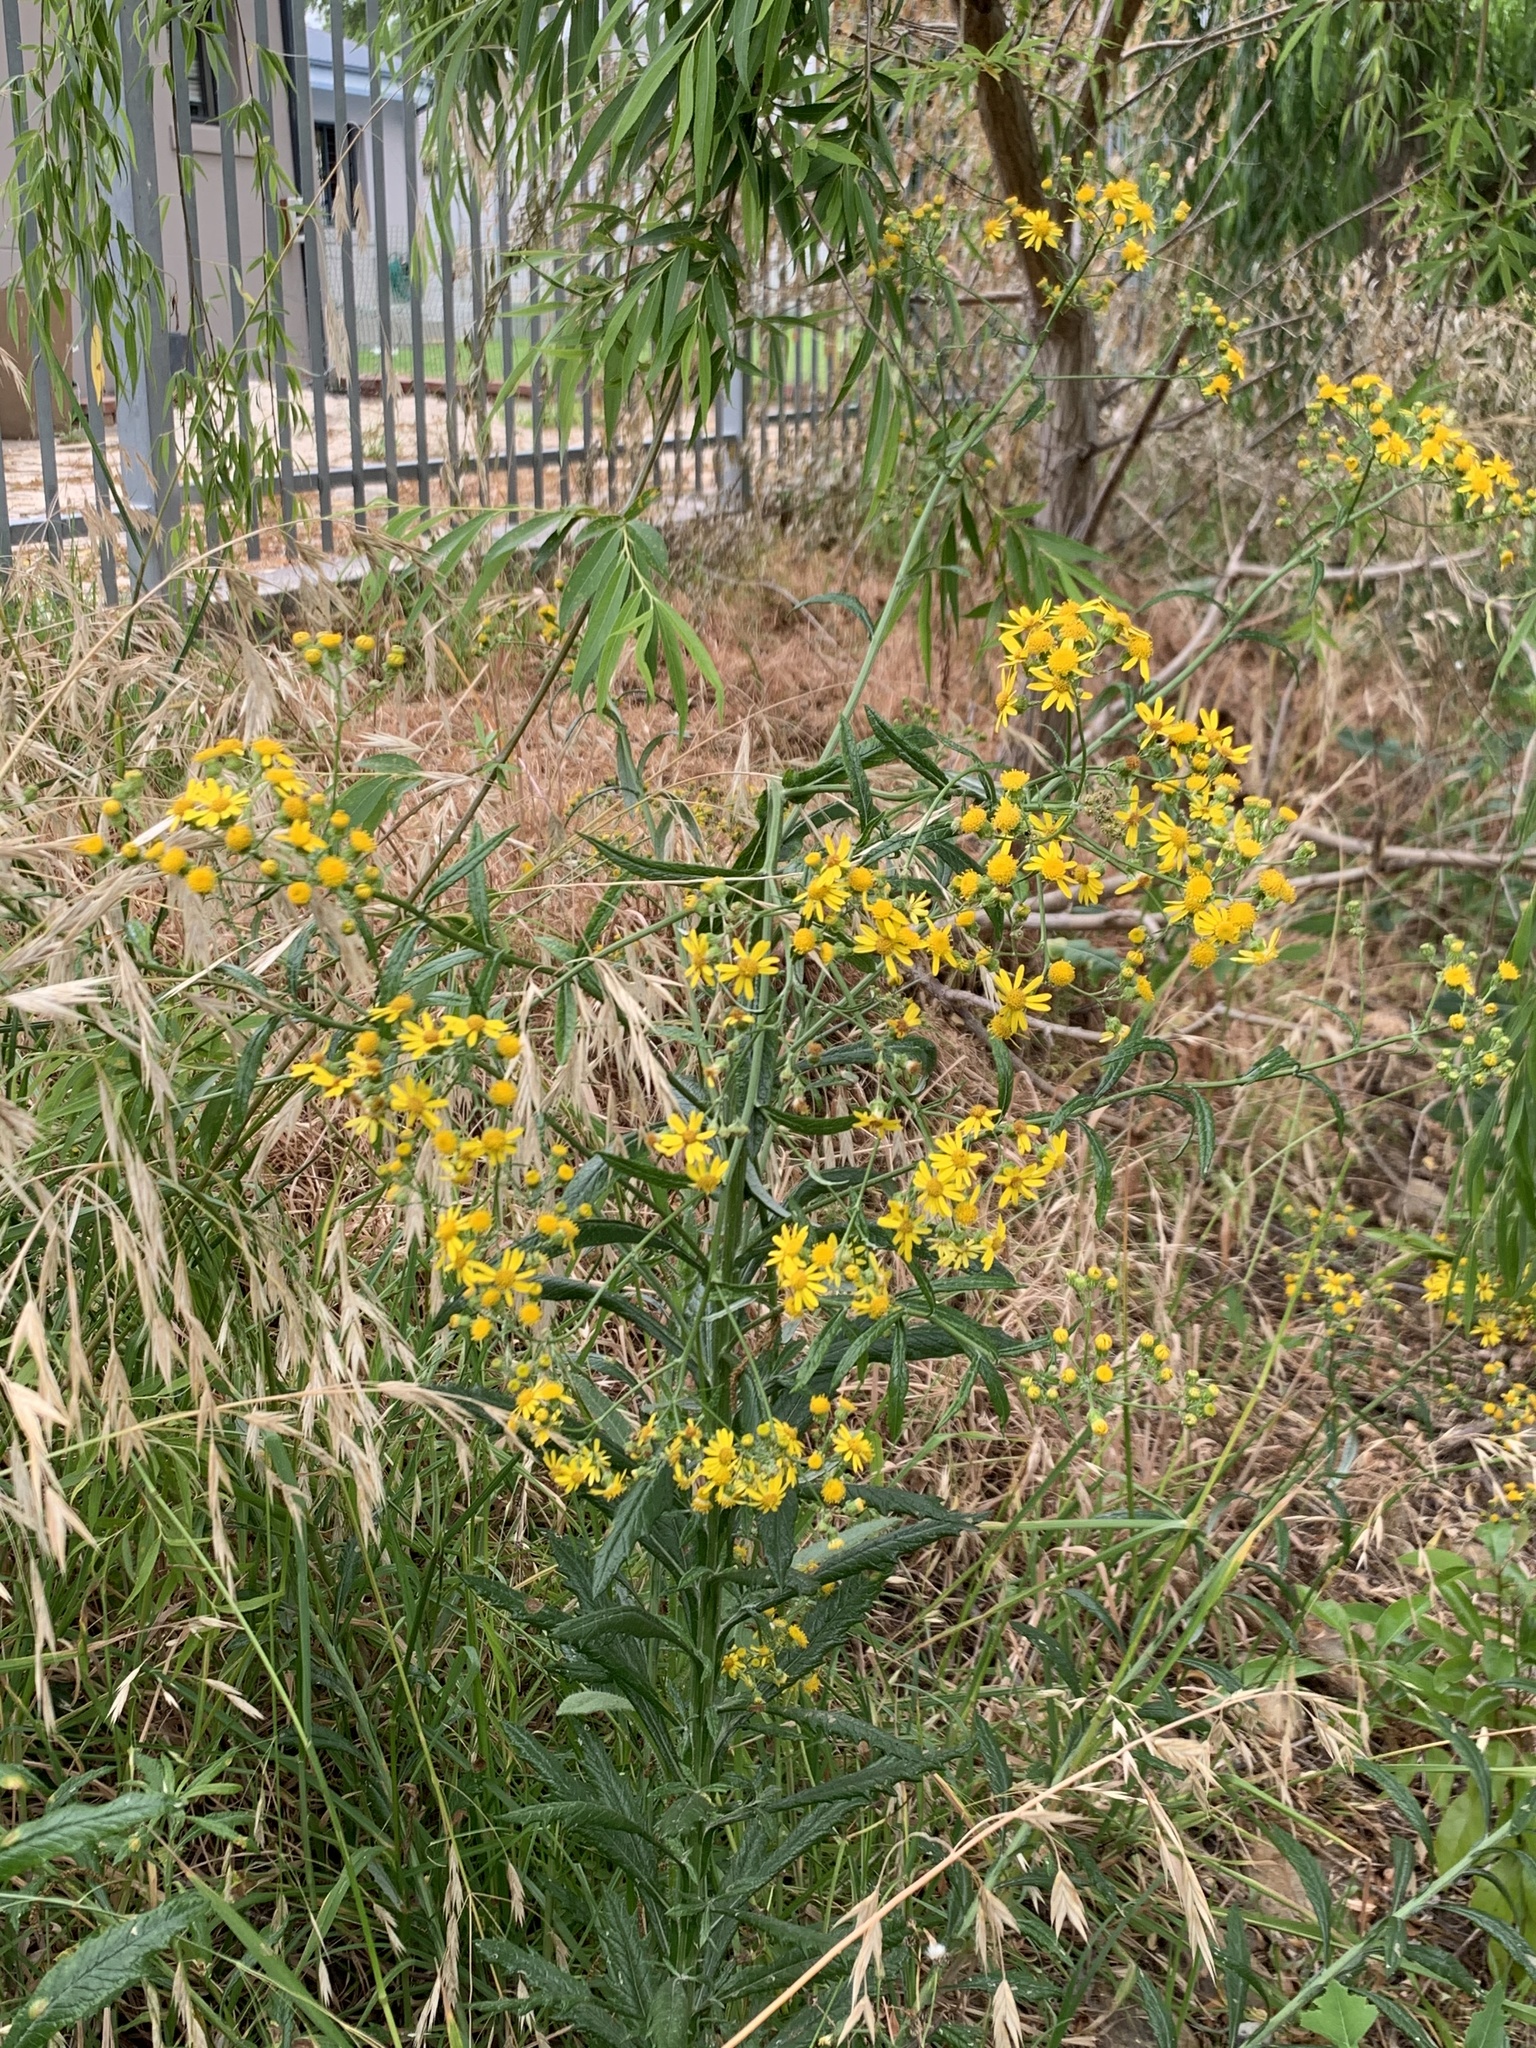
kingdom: Plantae
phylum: Tracheophyta
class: Magnoliopsida
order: Asterales
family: Asteraceae
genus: Senecio
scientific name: Senecio pterophorus
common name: Shoddy ragwort
